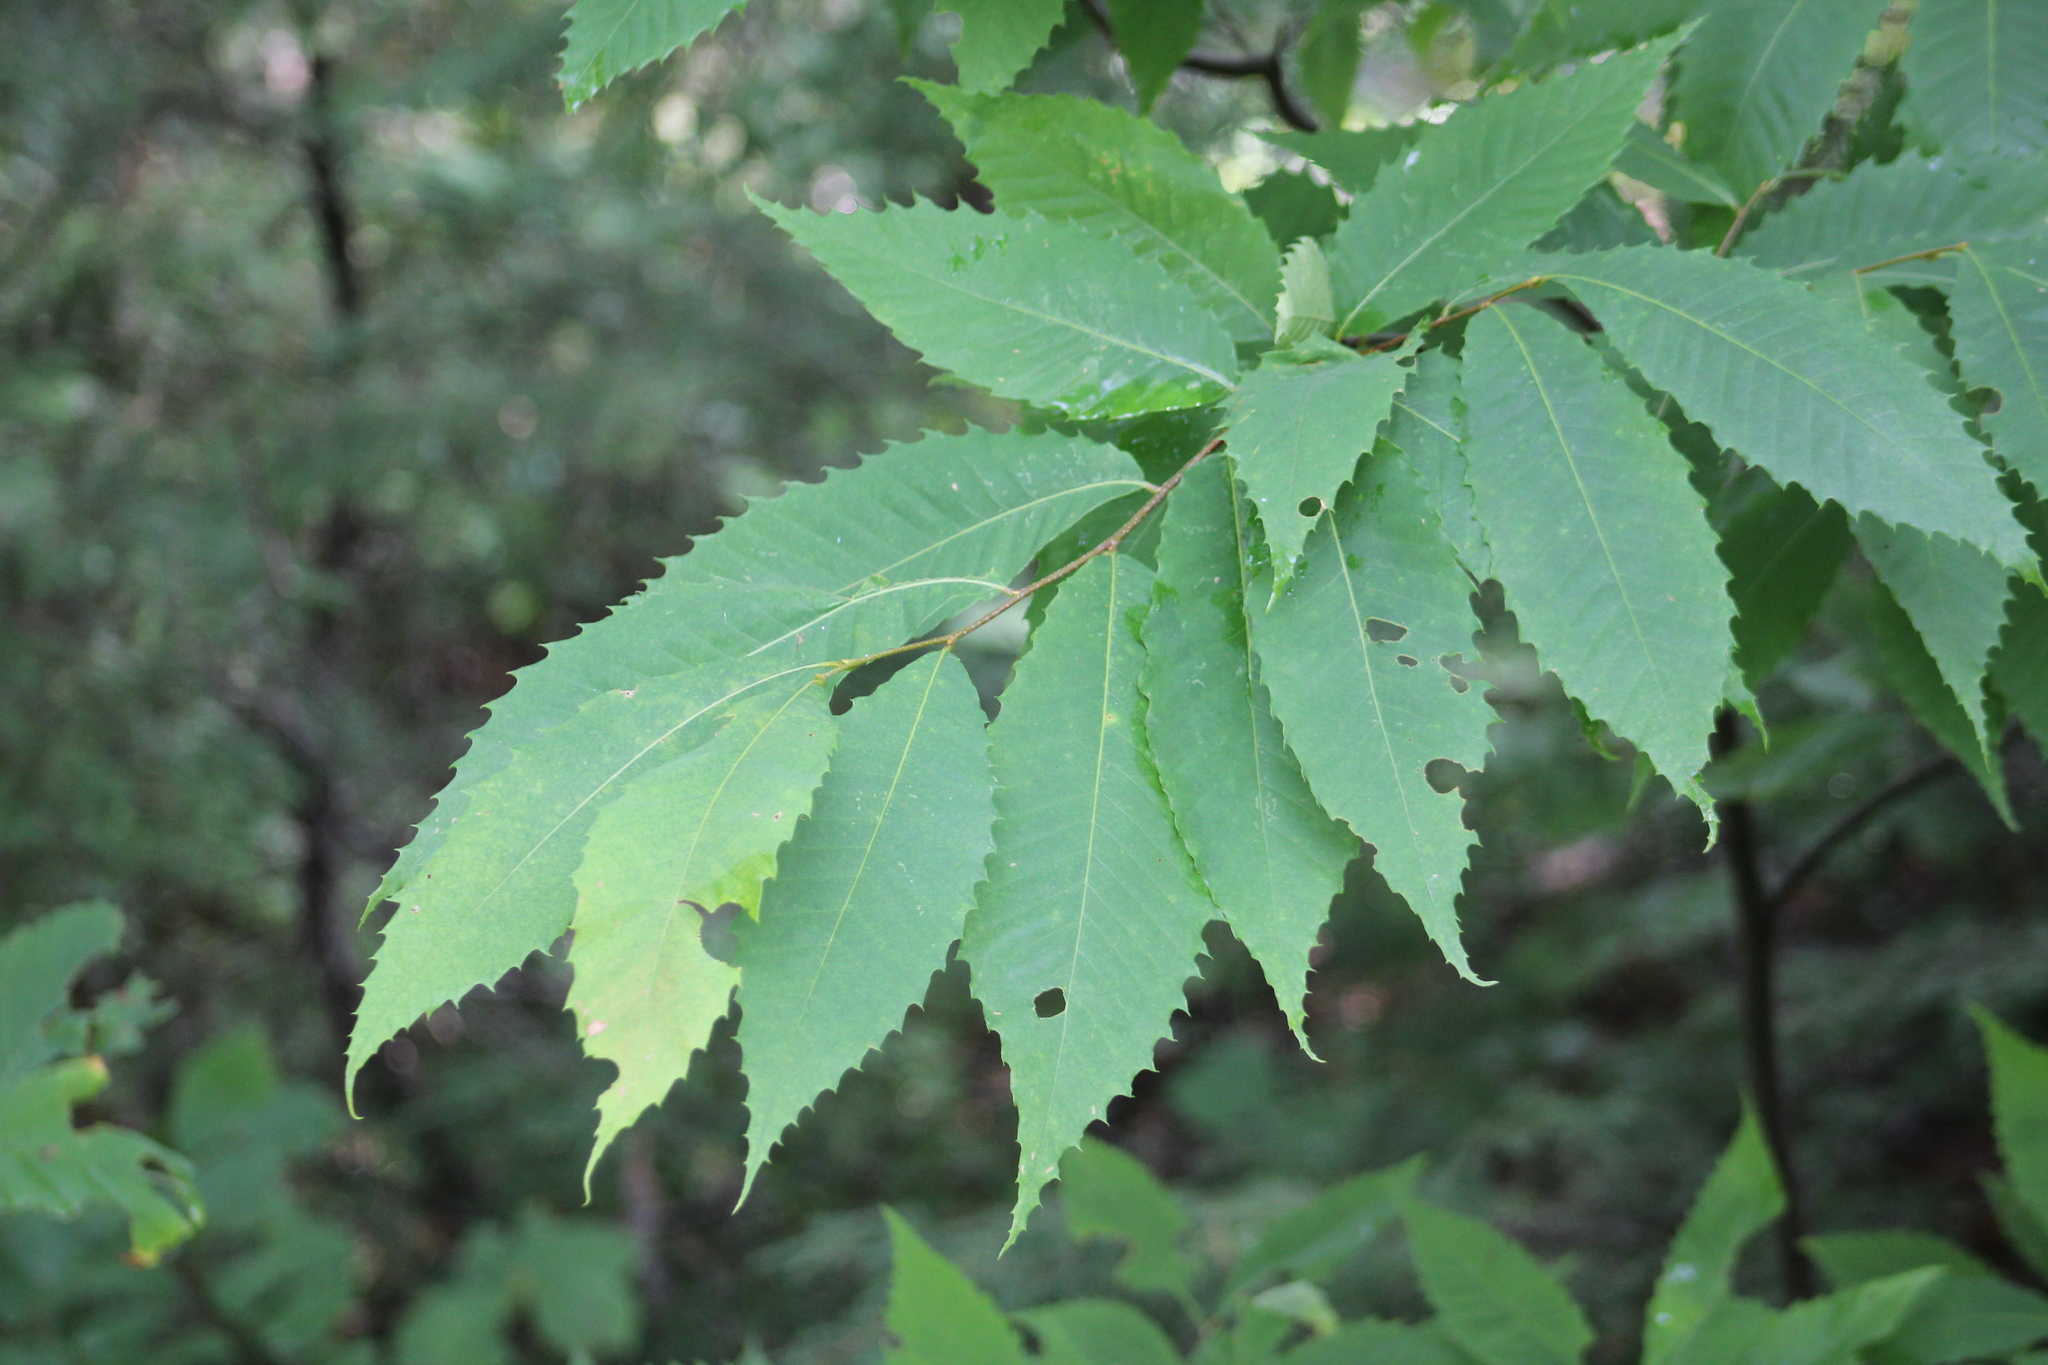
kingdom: Plantae
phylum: Tracheophyta
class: Magnoliopsida
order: Fagales
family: Fagaceae
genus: Castanea
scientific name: Castanea dentata
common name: American chestnut
